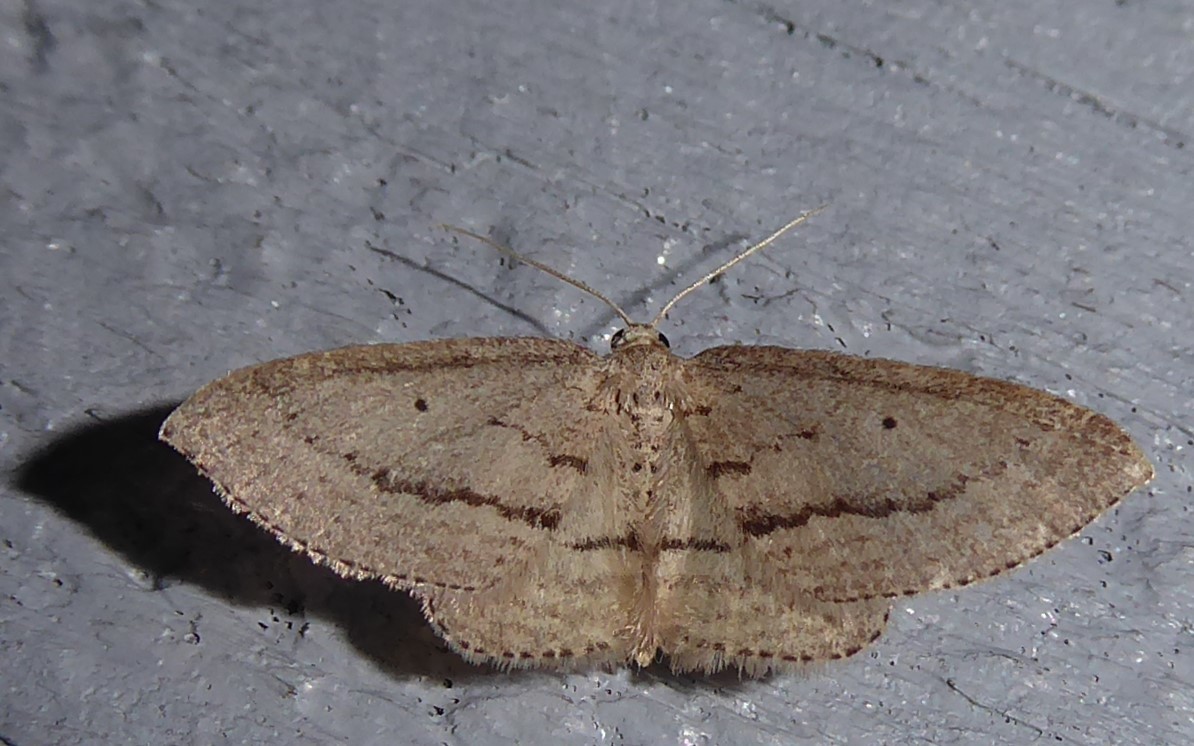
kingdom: Animalia
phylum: Arthropoda
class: Insecta
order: Lepidoptera
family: Geometridae
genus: Poecilasthena
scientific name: Poecilasthena schistaria
